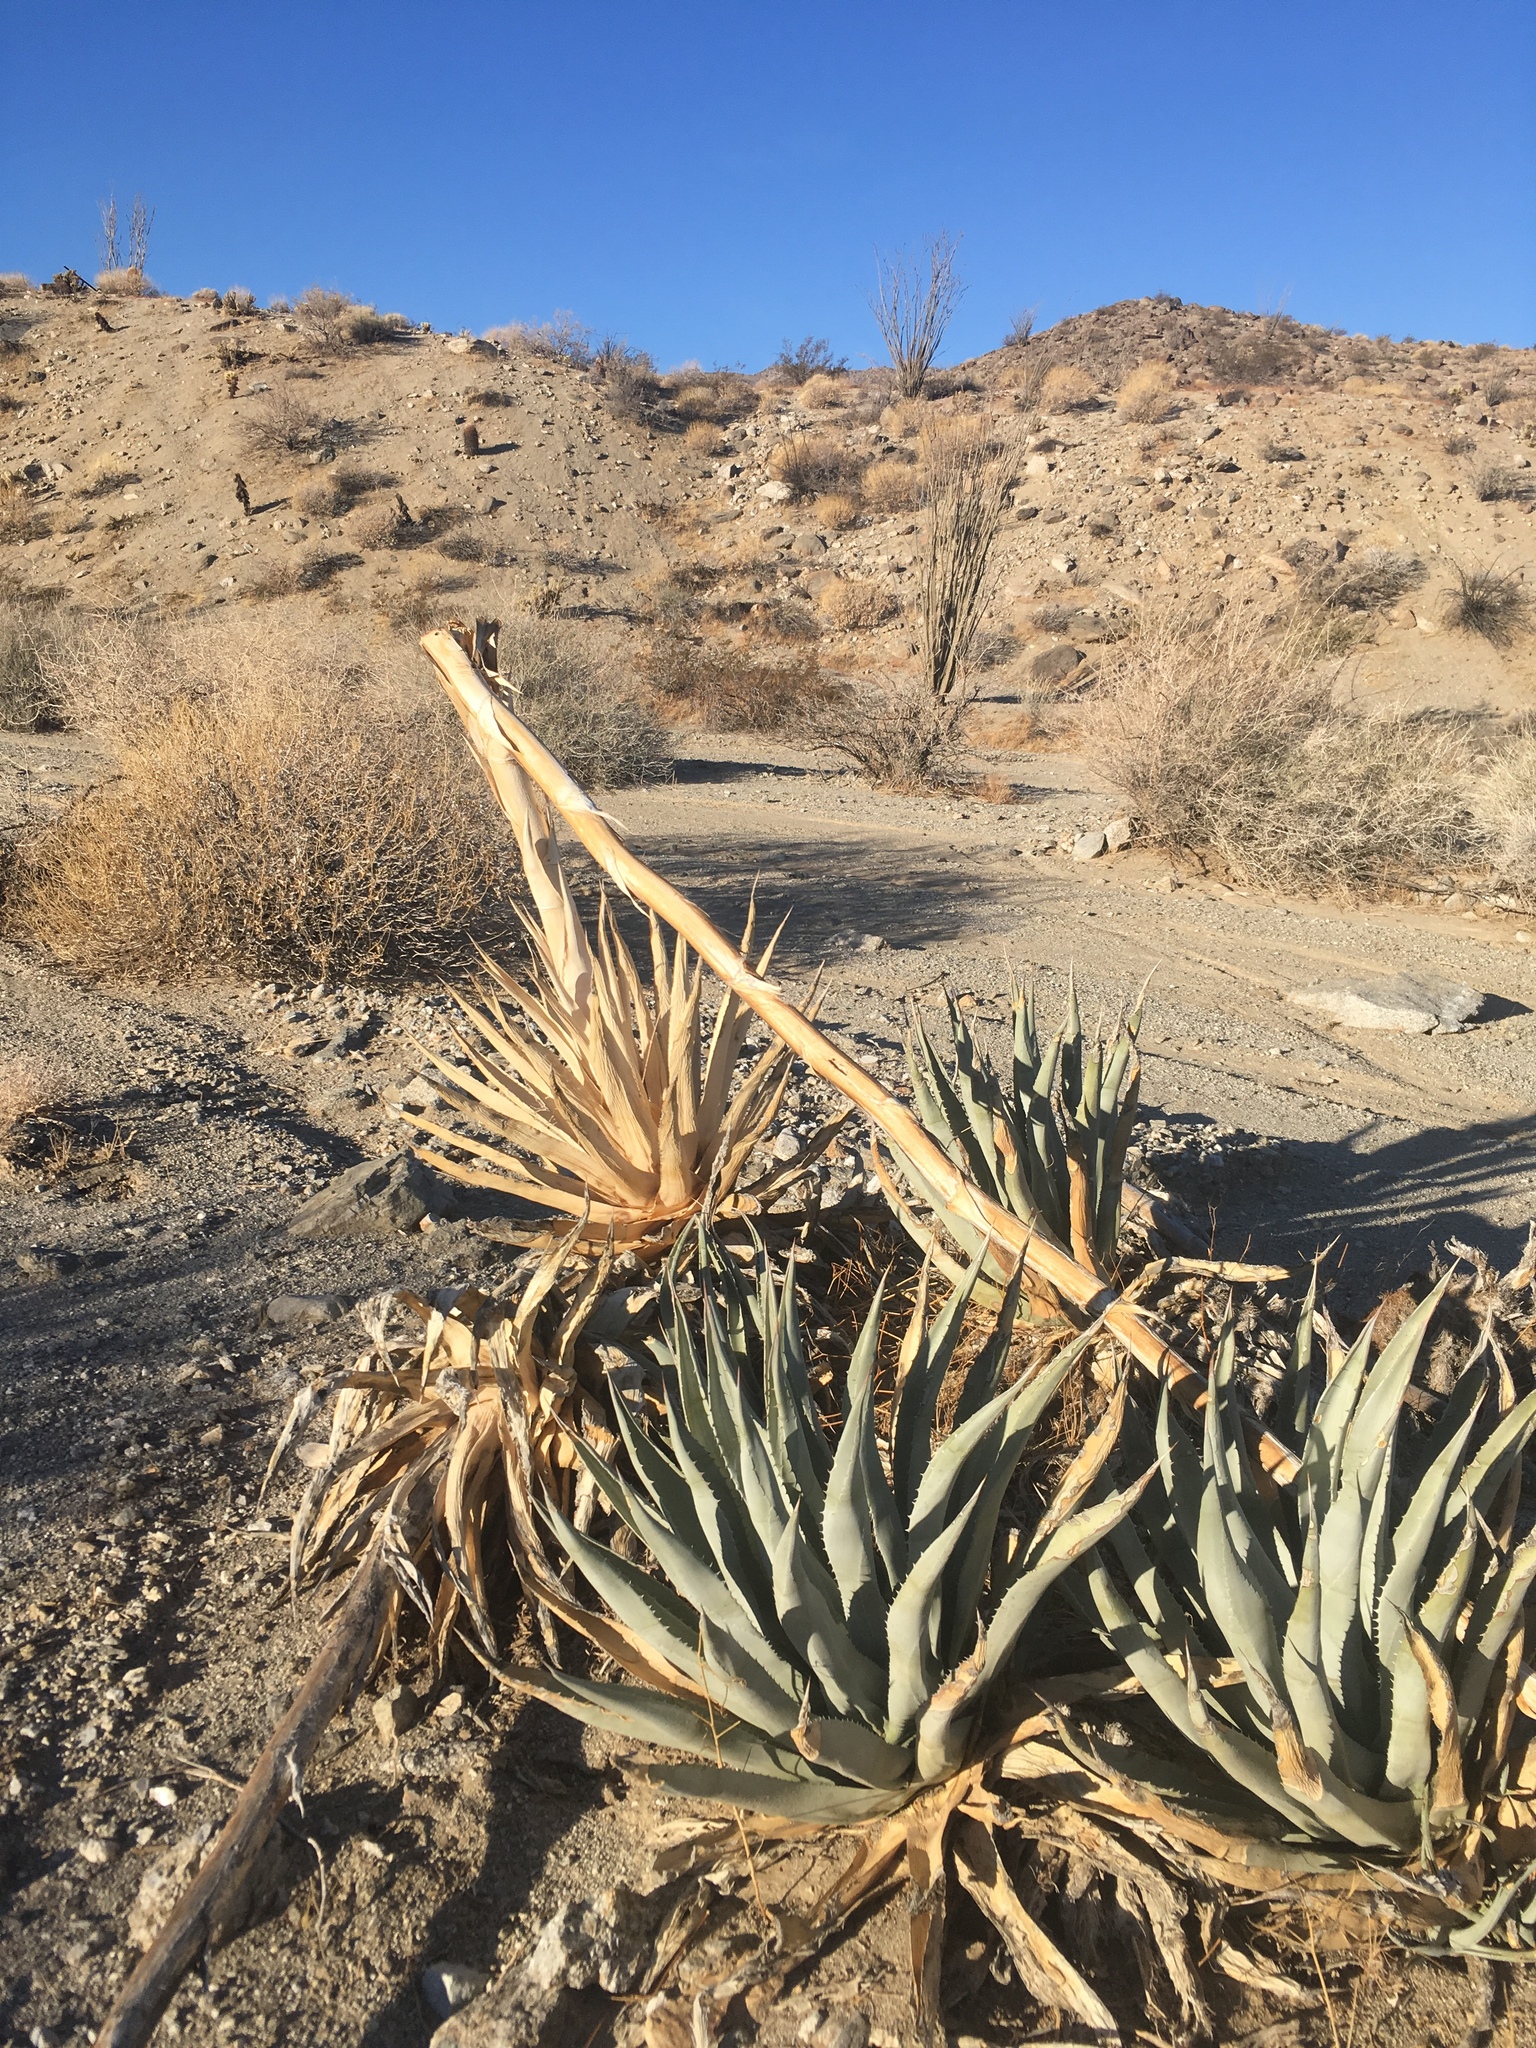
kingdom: Plantae
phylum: Tracheophyta
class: Liliopsida
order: Asparagales
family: Asparagaceae
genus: Agave
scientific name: Agave deserti
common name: Desert agave
